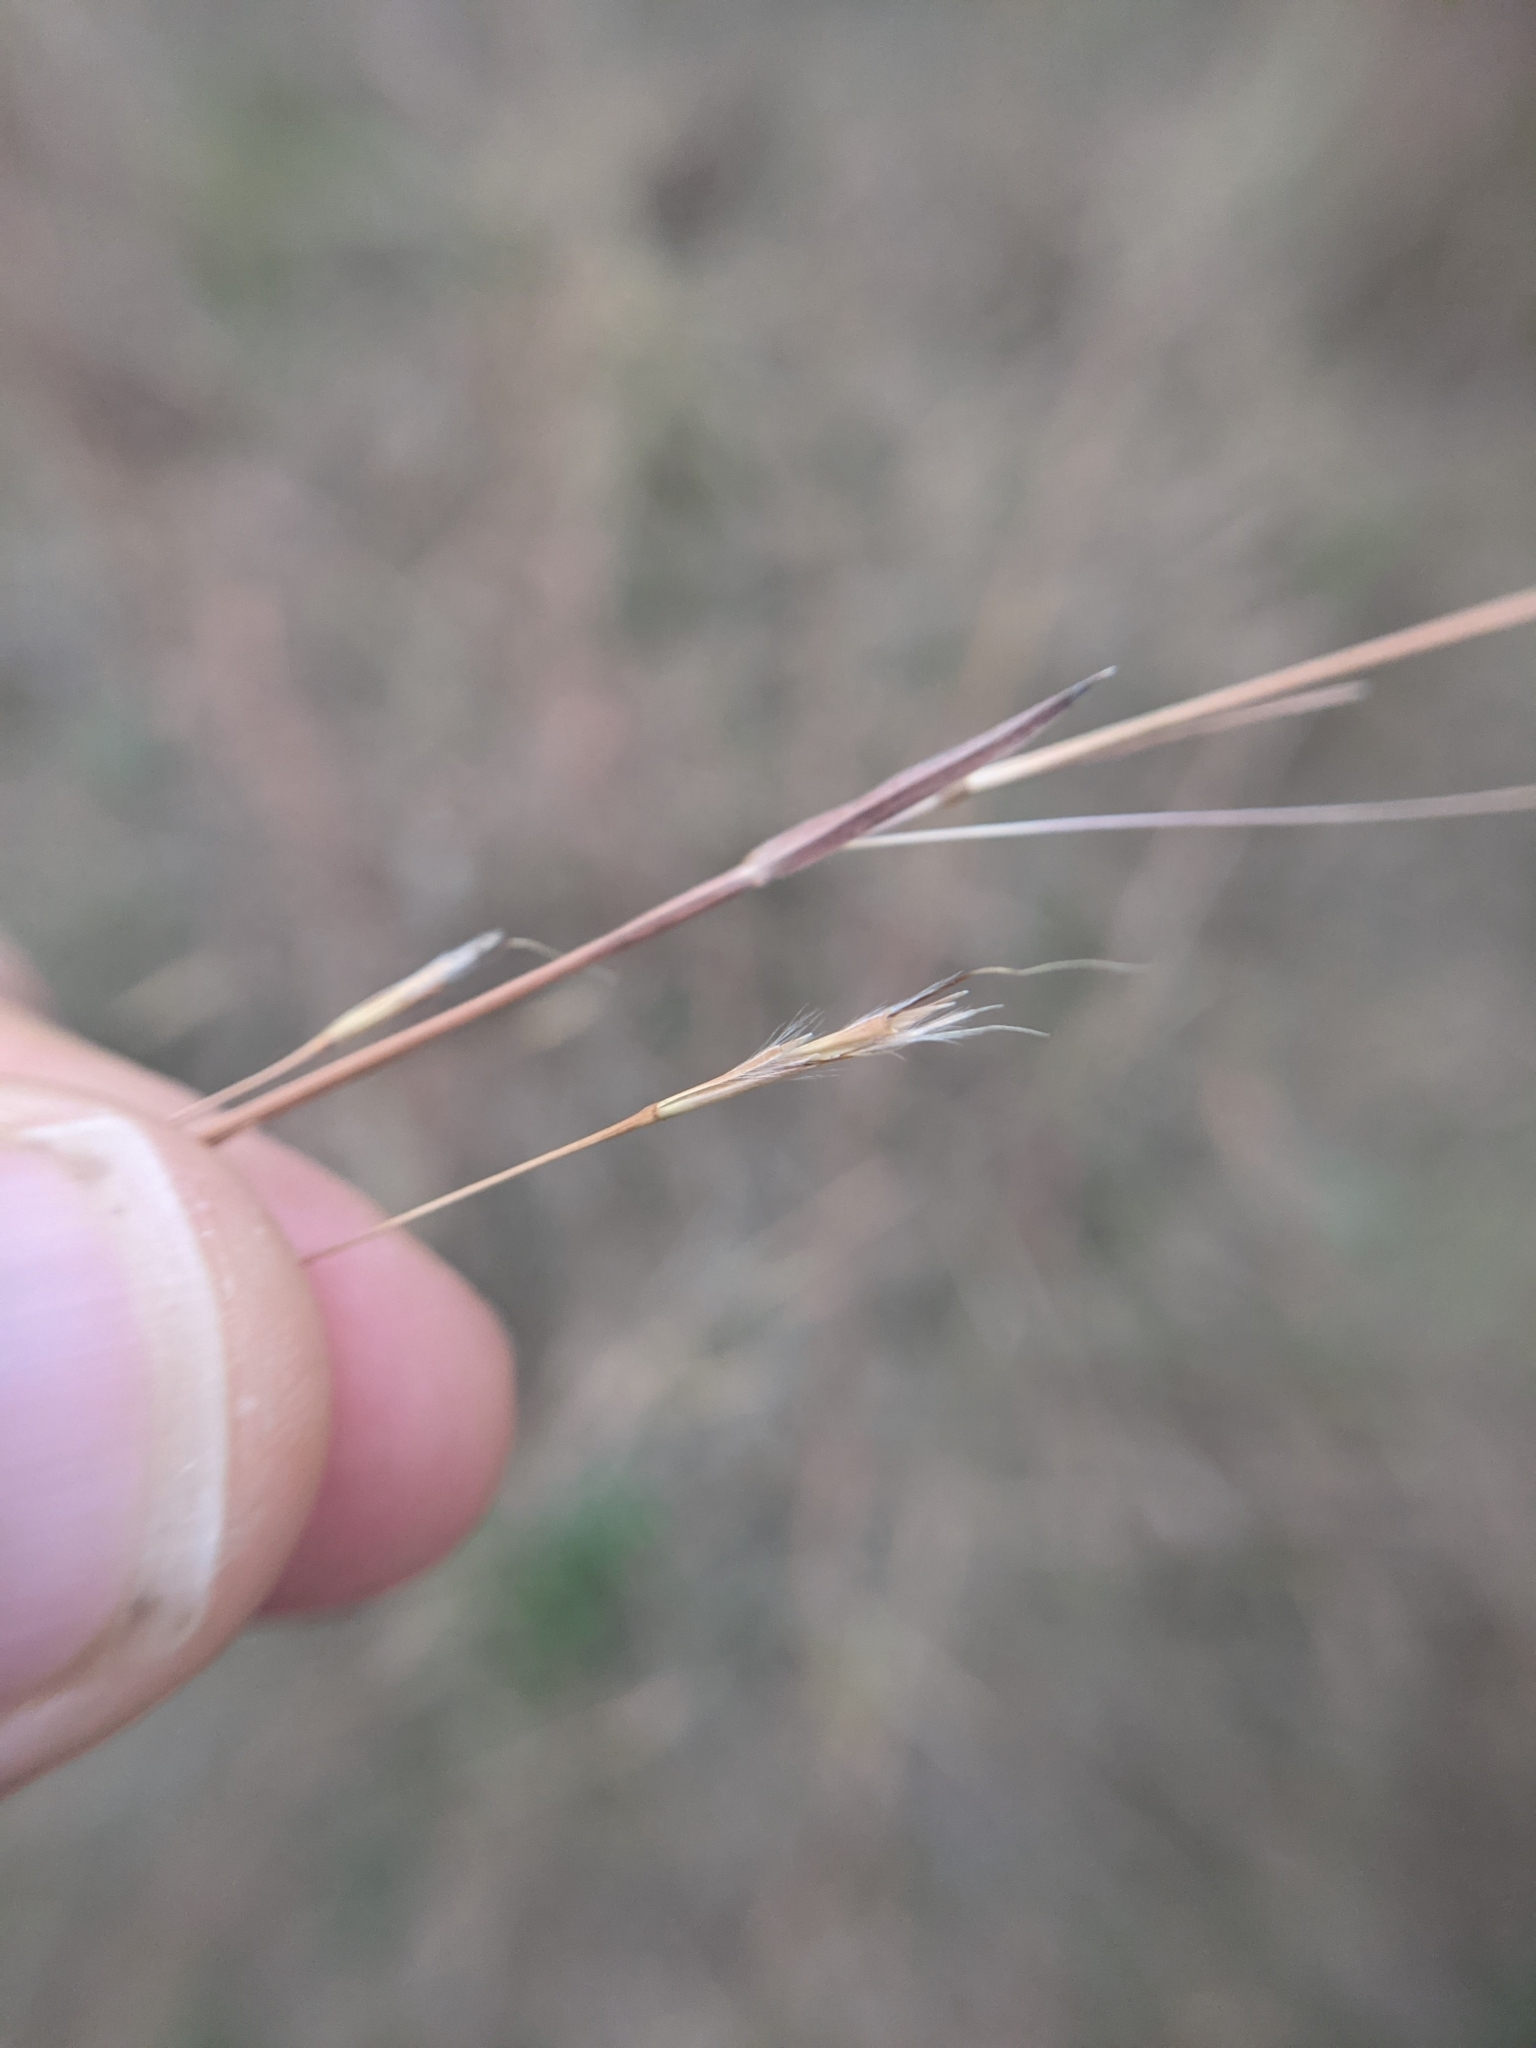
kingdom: Plantae
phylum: Tracheophyta
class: Liliopsida
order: Poales
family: Poaceae
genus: Schizachyrium
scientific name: Schizachyrium scoparium
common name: Little bluestem
